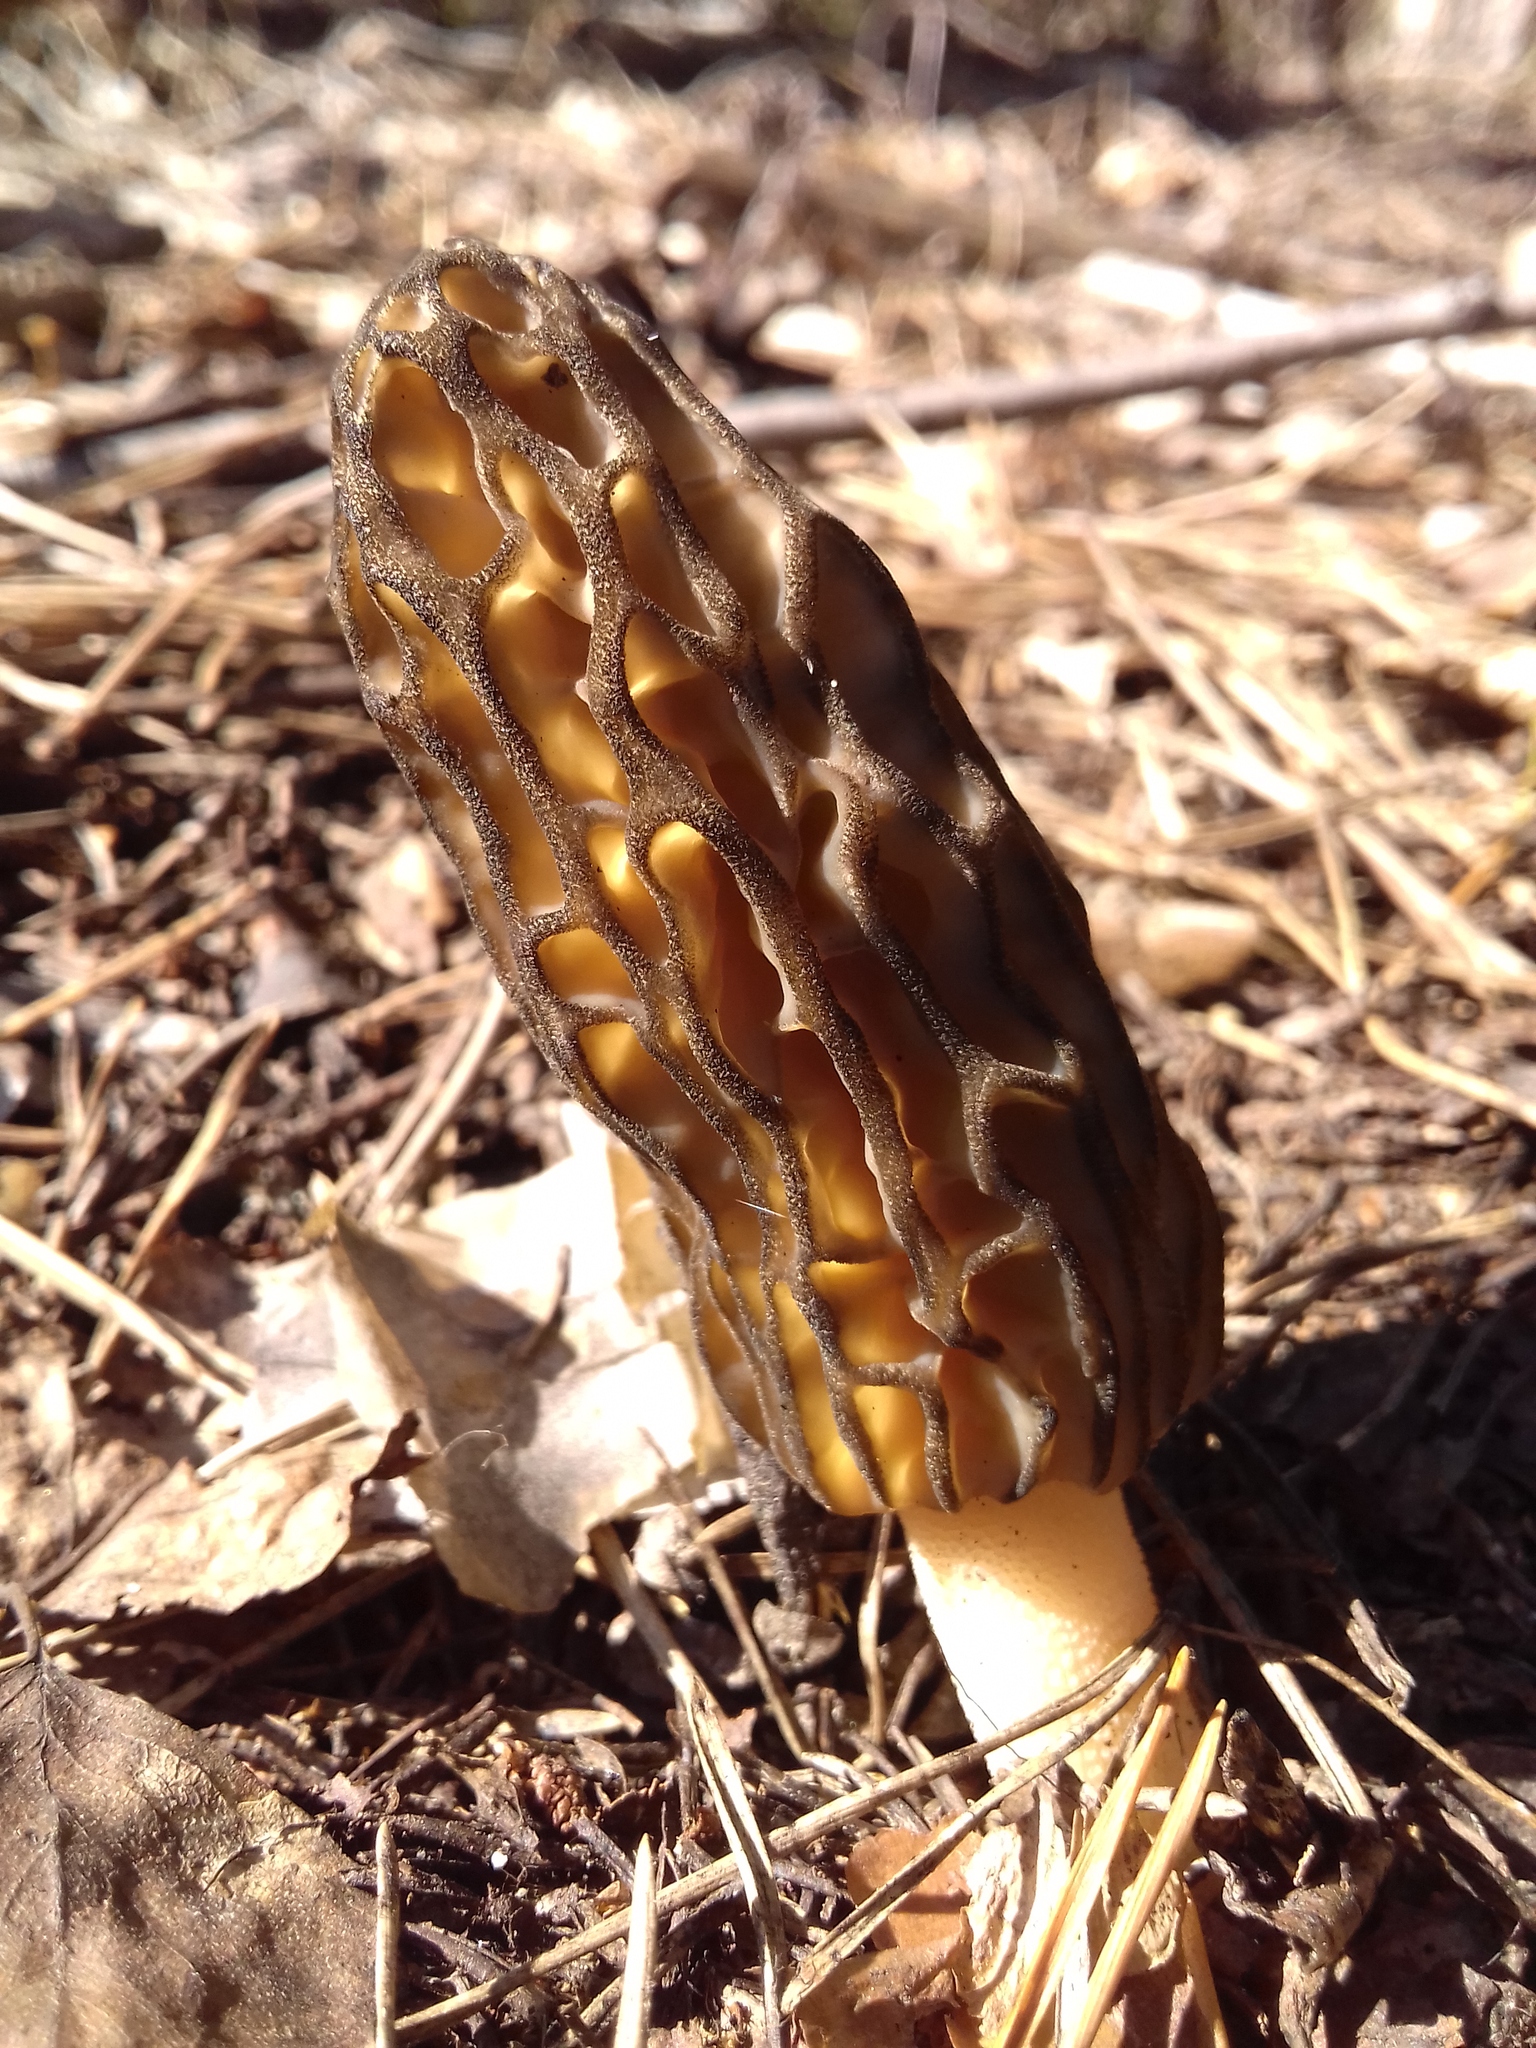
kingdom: Fungi
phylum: Ascomycota
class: Pezizomycetes
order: Pezizales
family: Morchellaceae
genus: Morchella
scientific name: Morchella
